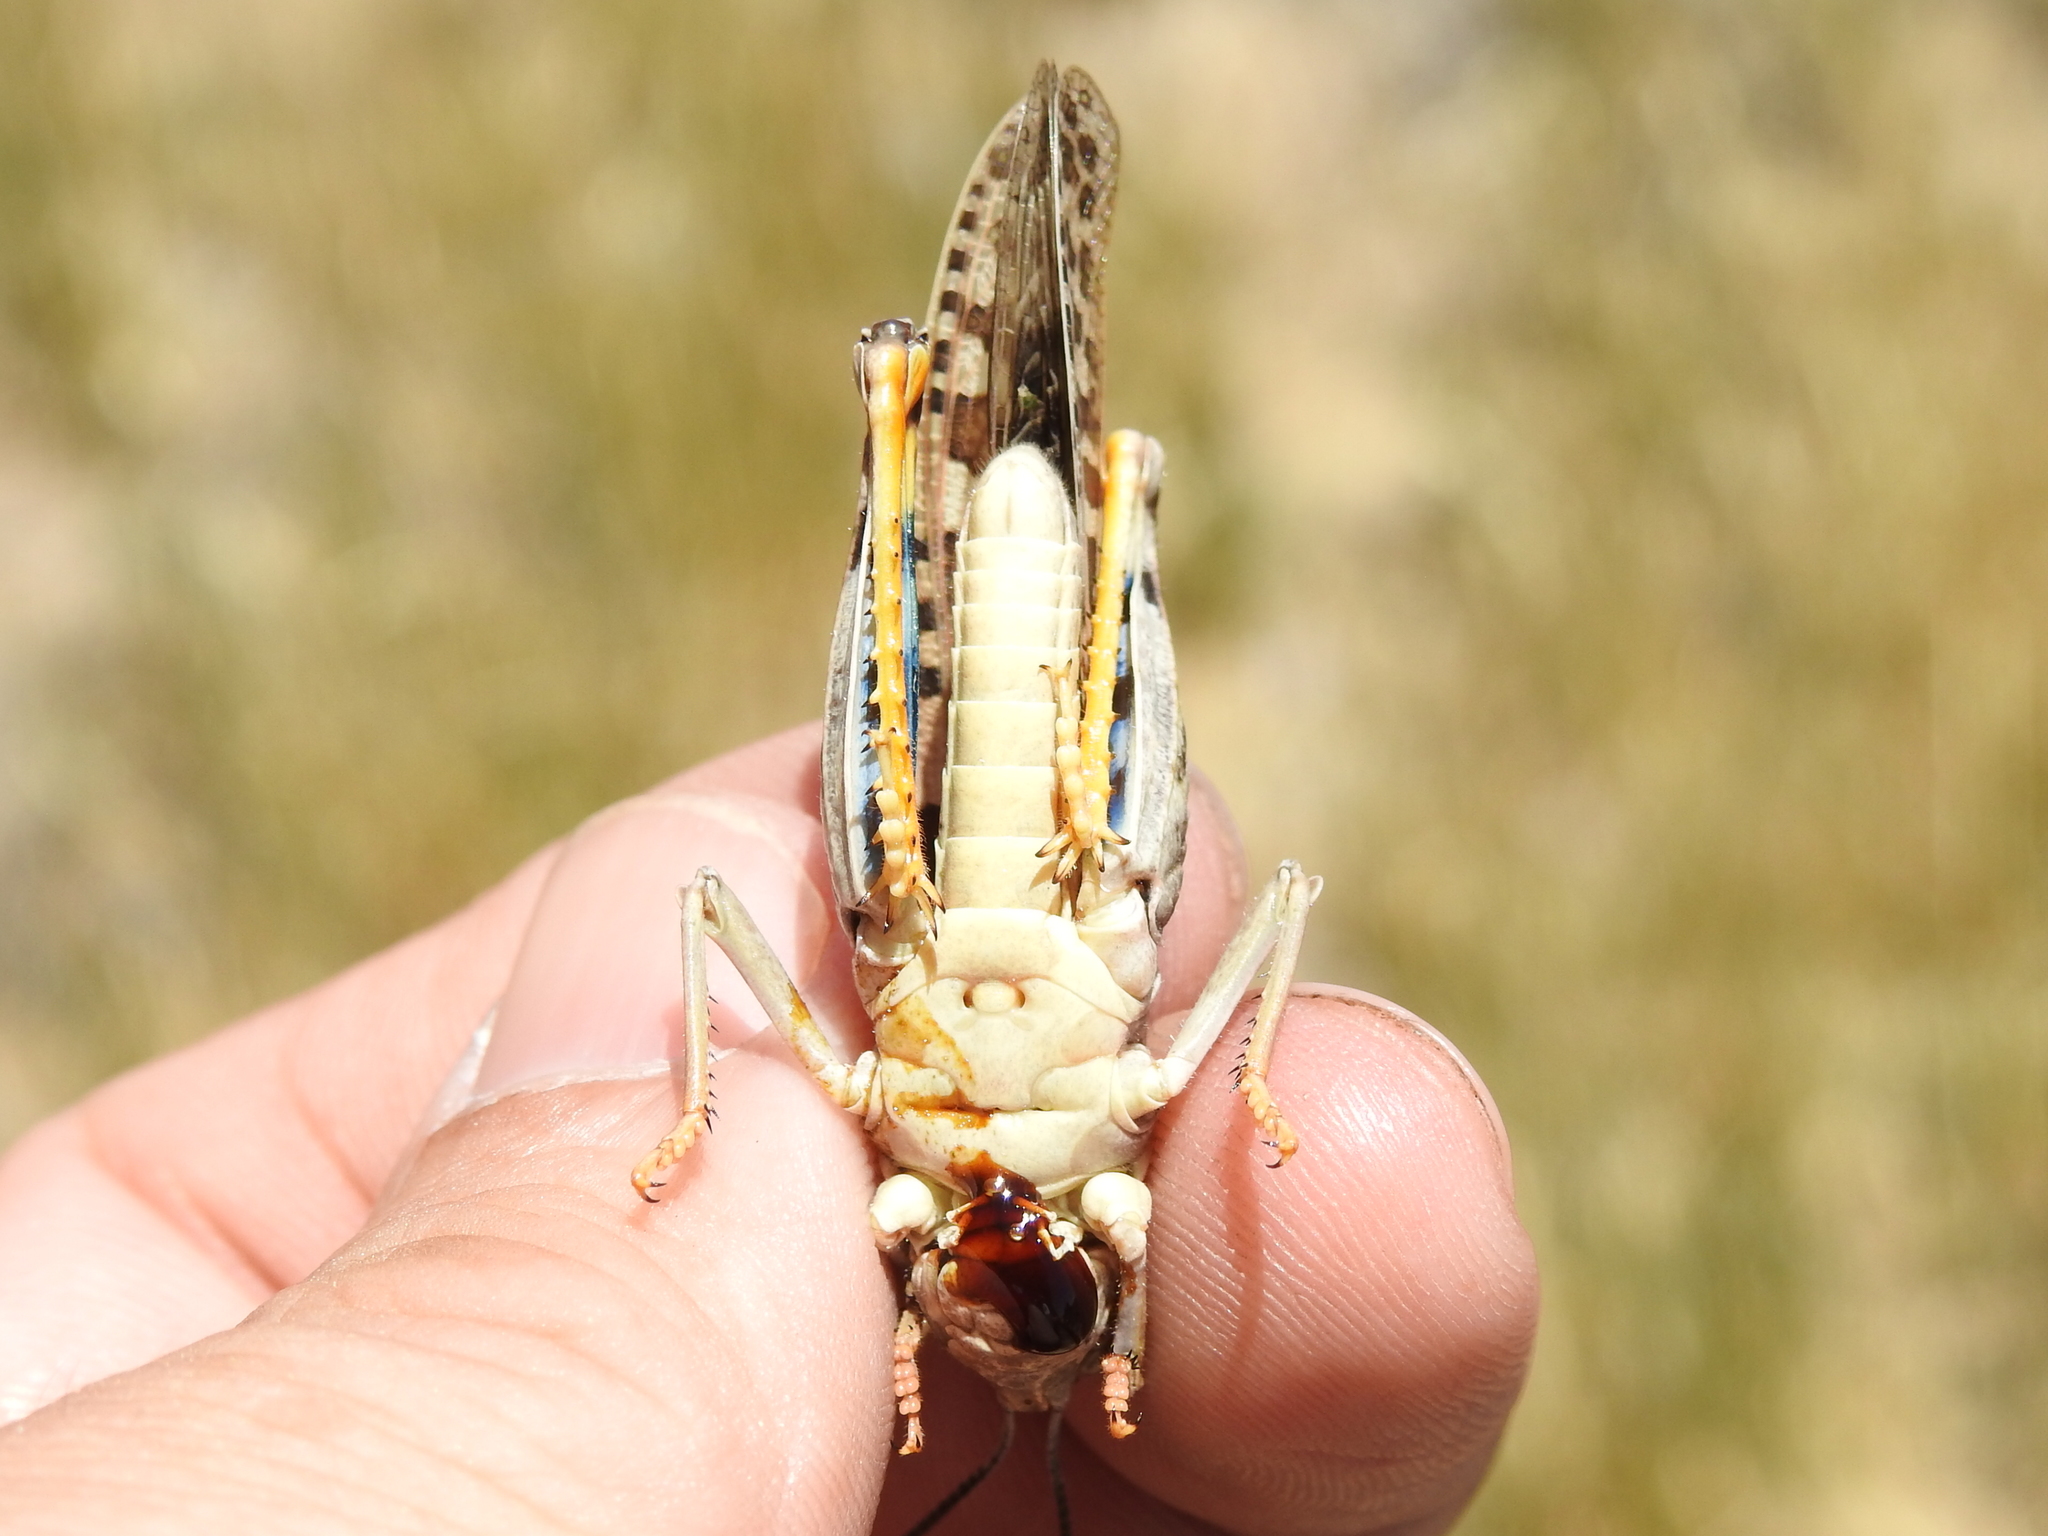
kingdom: Animalia
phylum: Arthropoda
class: Insecta
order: Orthoptera
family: Acrididae
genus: Pardalophora
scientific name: Pardalophora saussurei
